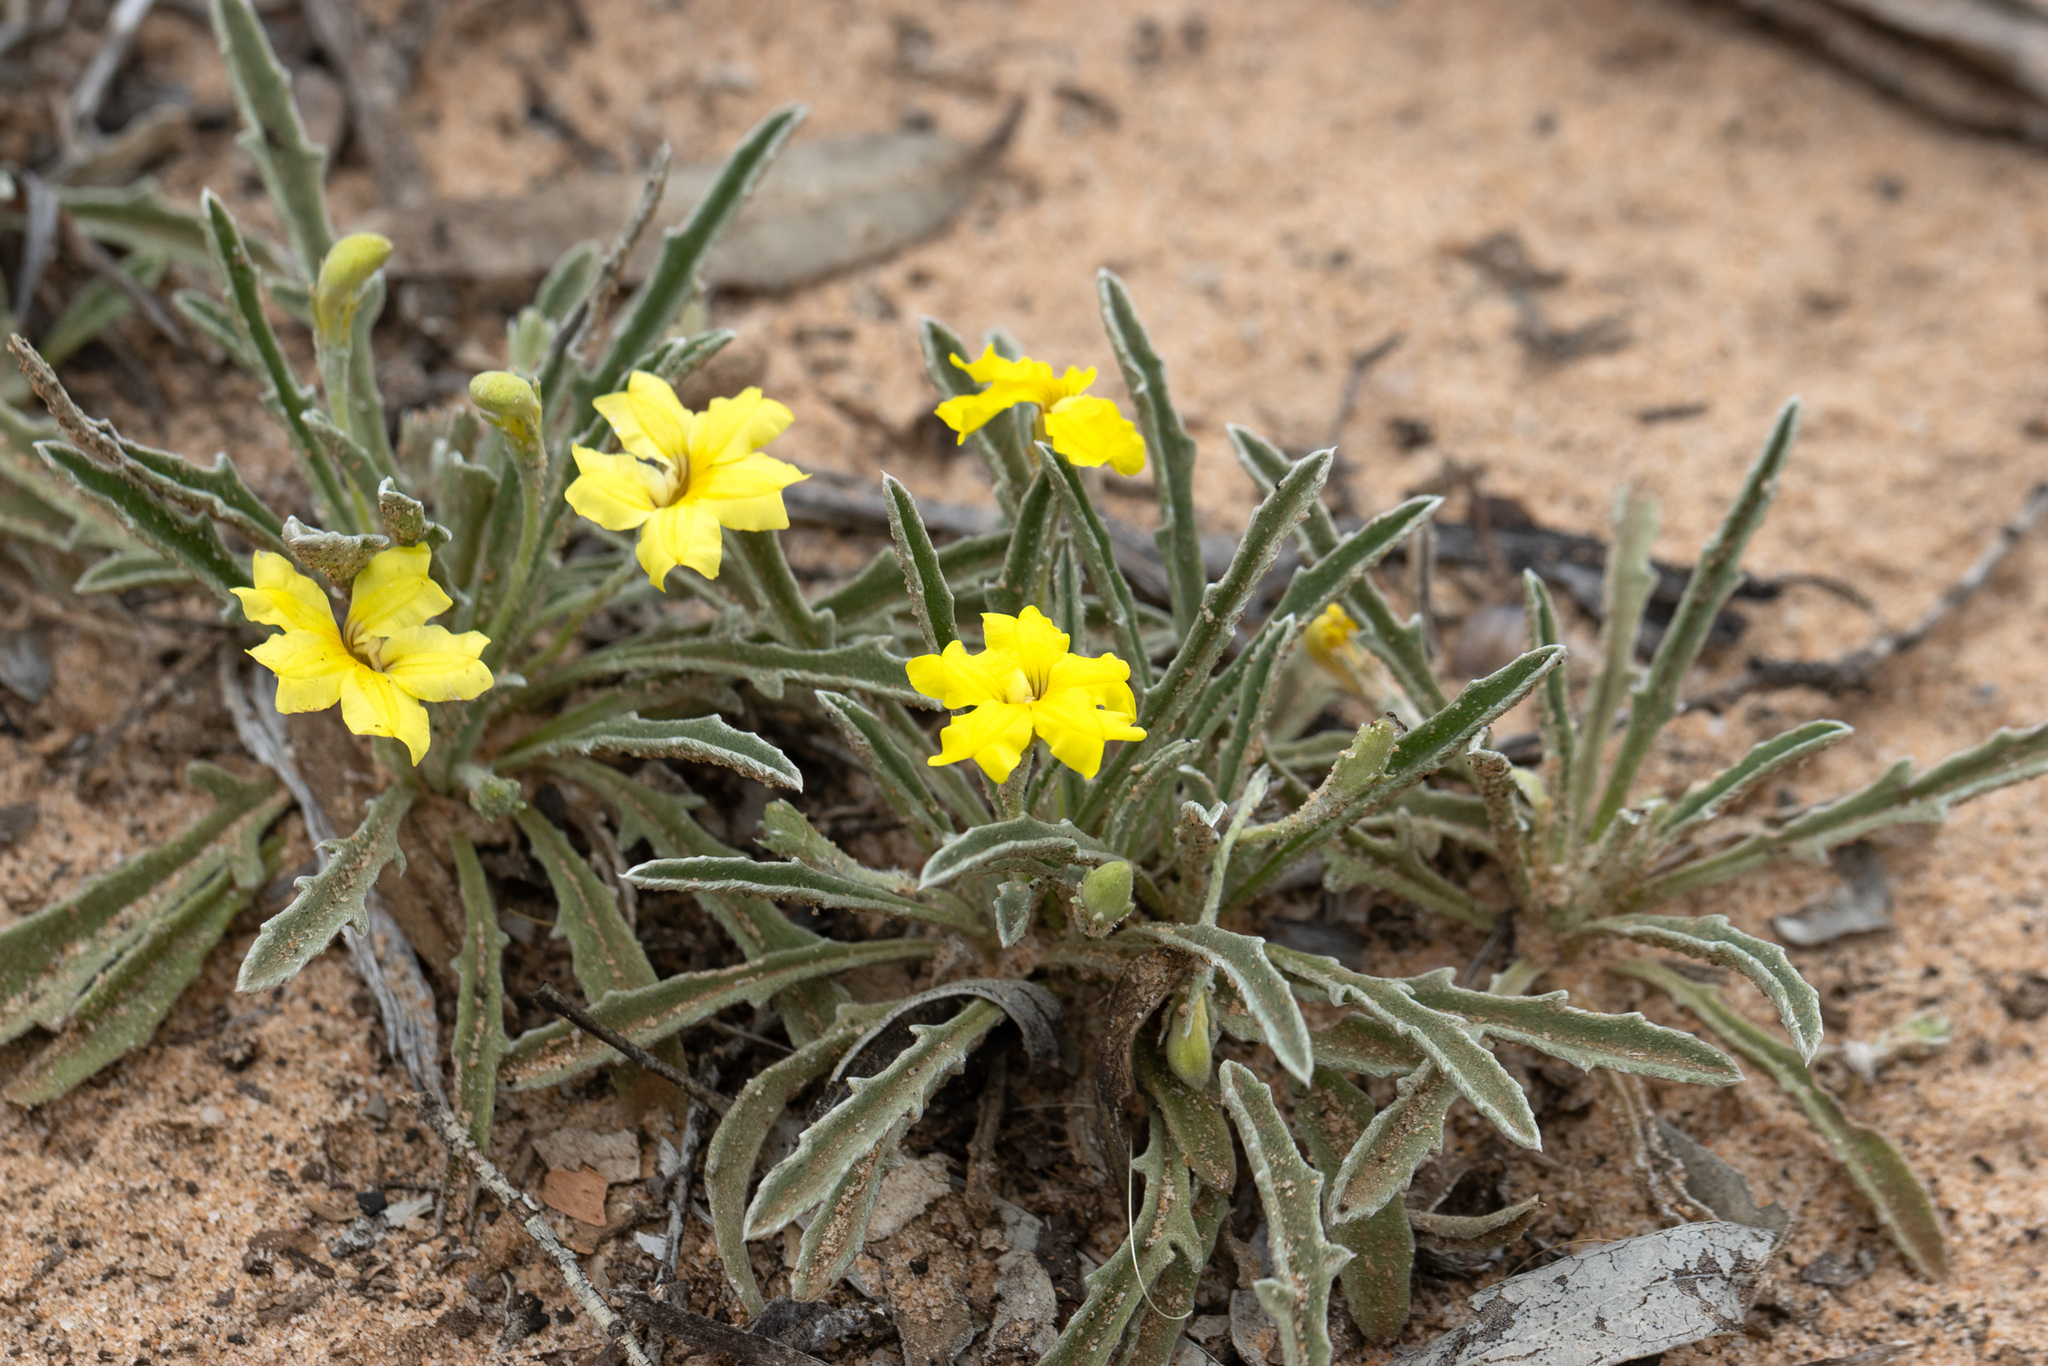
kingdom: Plantae
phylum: Tracheophyta
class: Magnoliopsida
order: Asterales
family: Goodeniaceae
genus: Goodenia
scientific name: Goodenia willisiana
